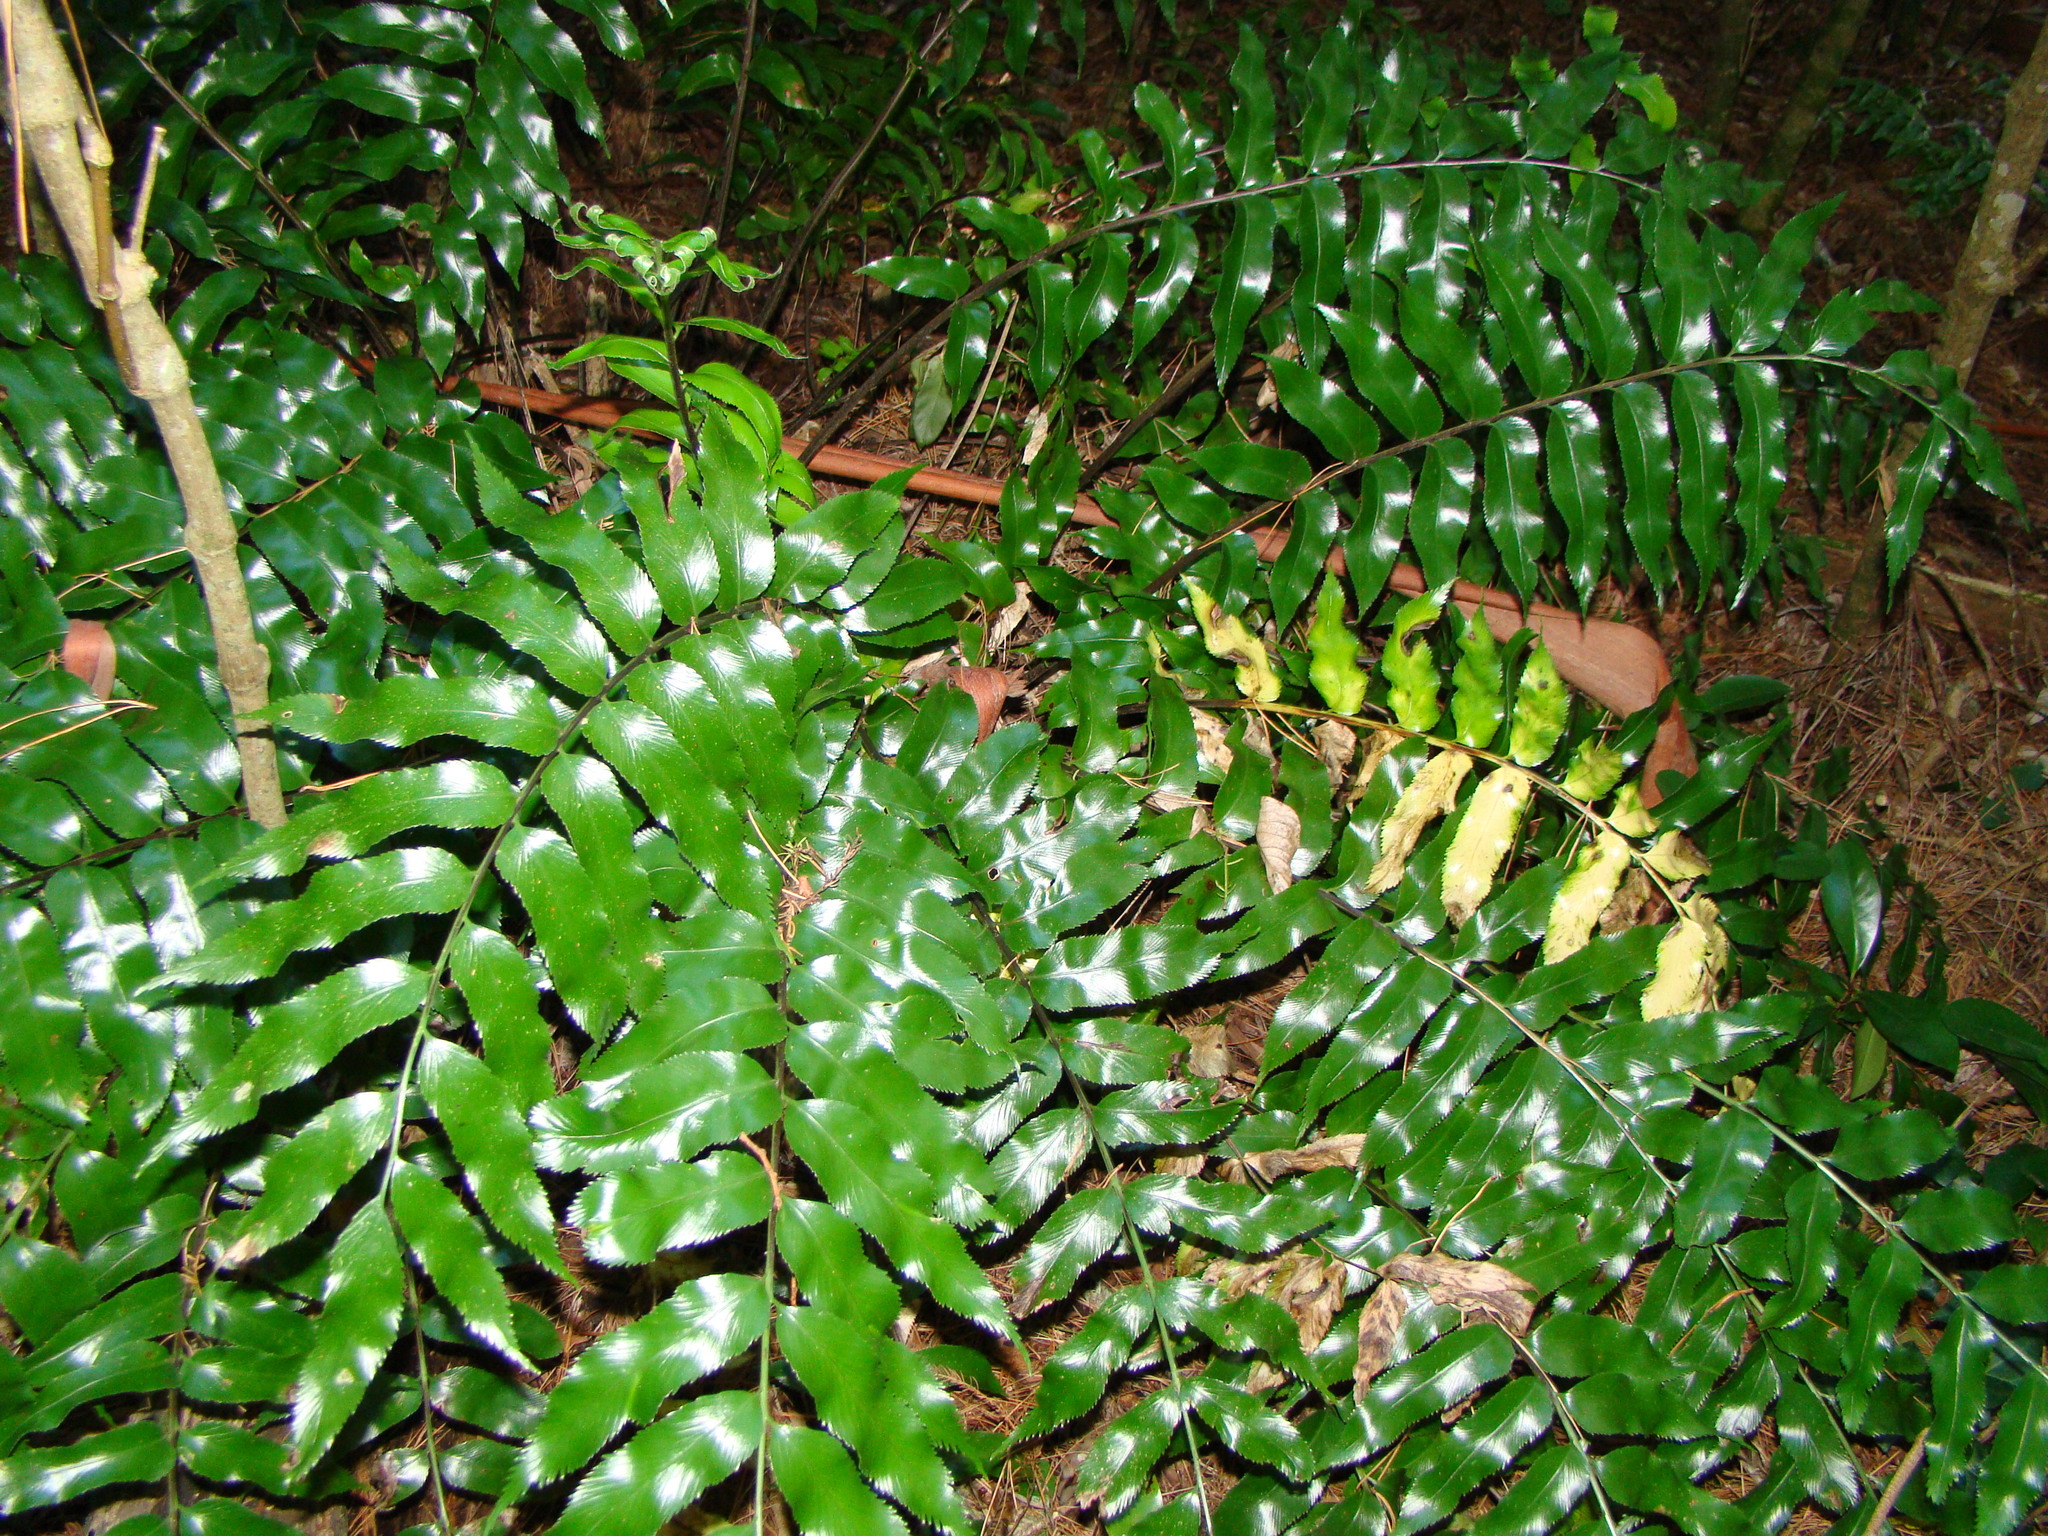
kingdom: Plantae
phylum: Tracheophyta
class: Polypodiopsida
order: Polypodiales
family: Aspleniaceae
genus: Asplenium
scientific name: Asplenium oblongifolium
